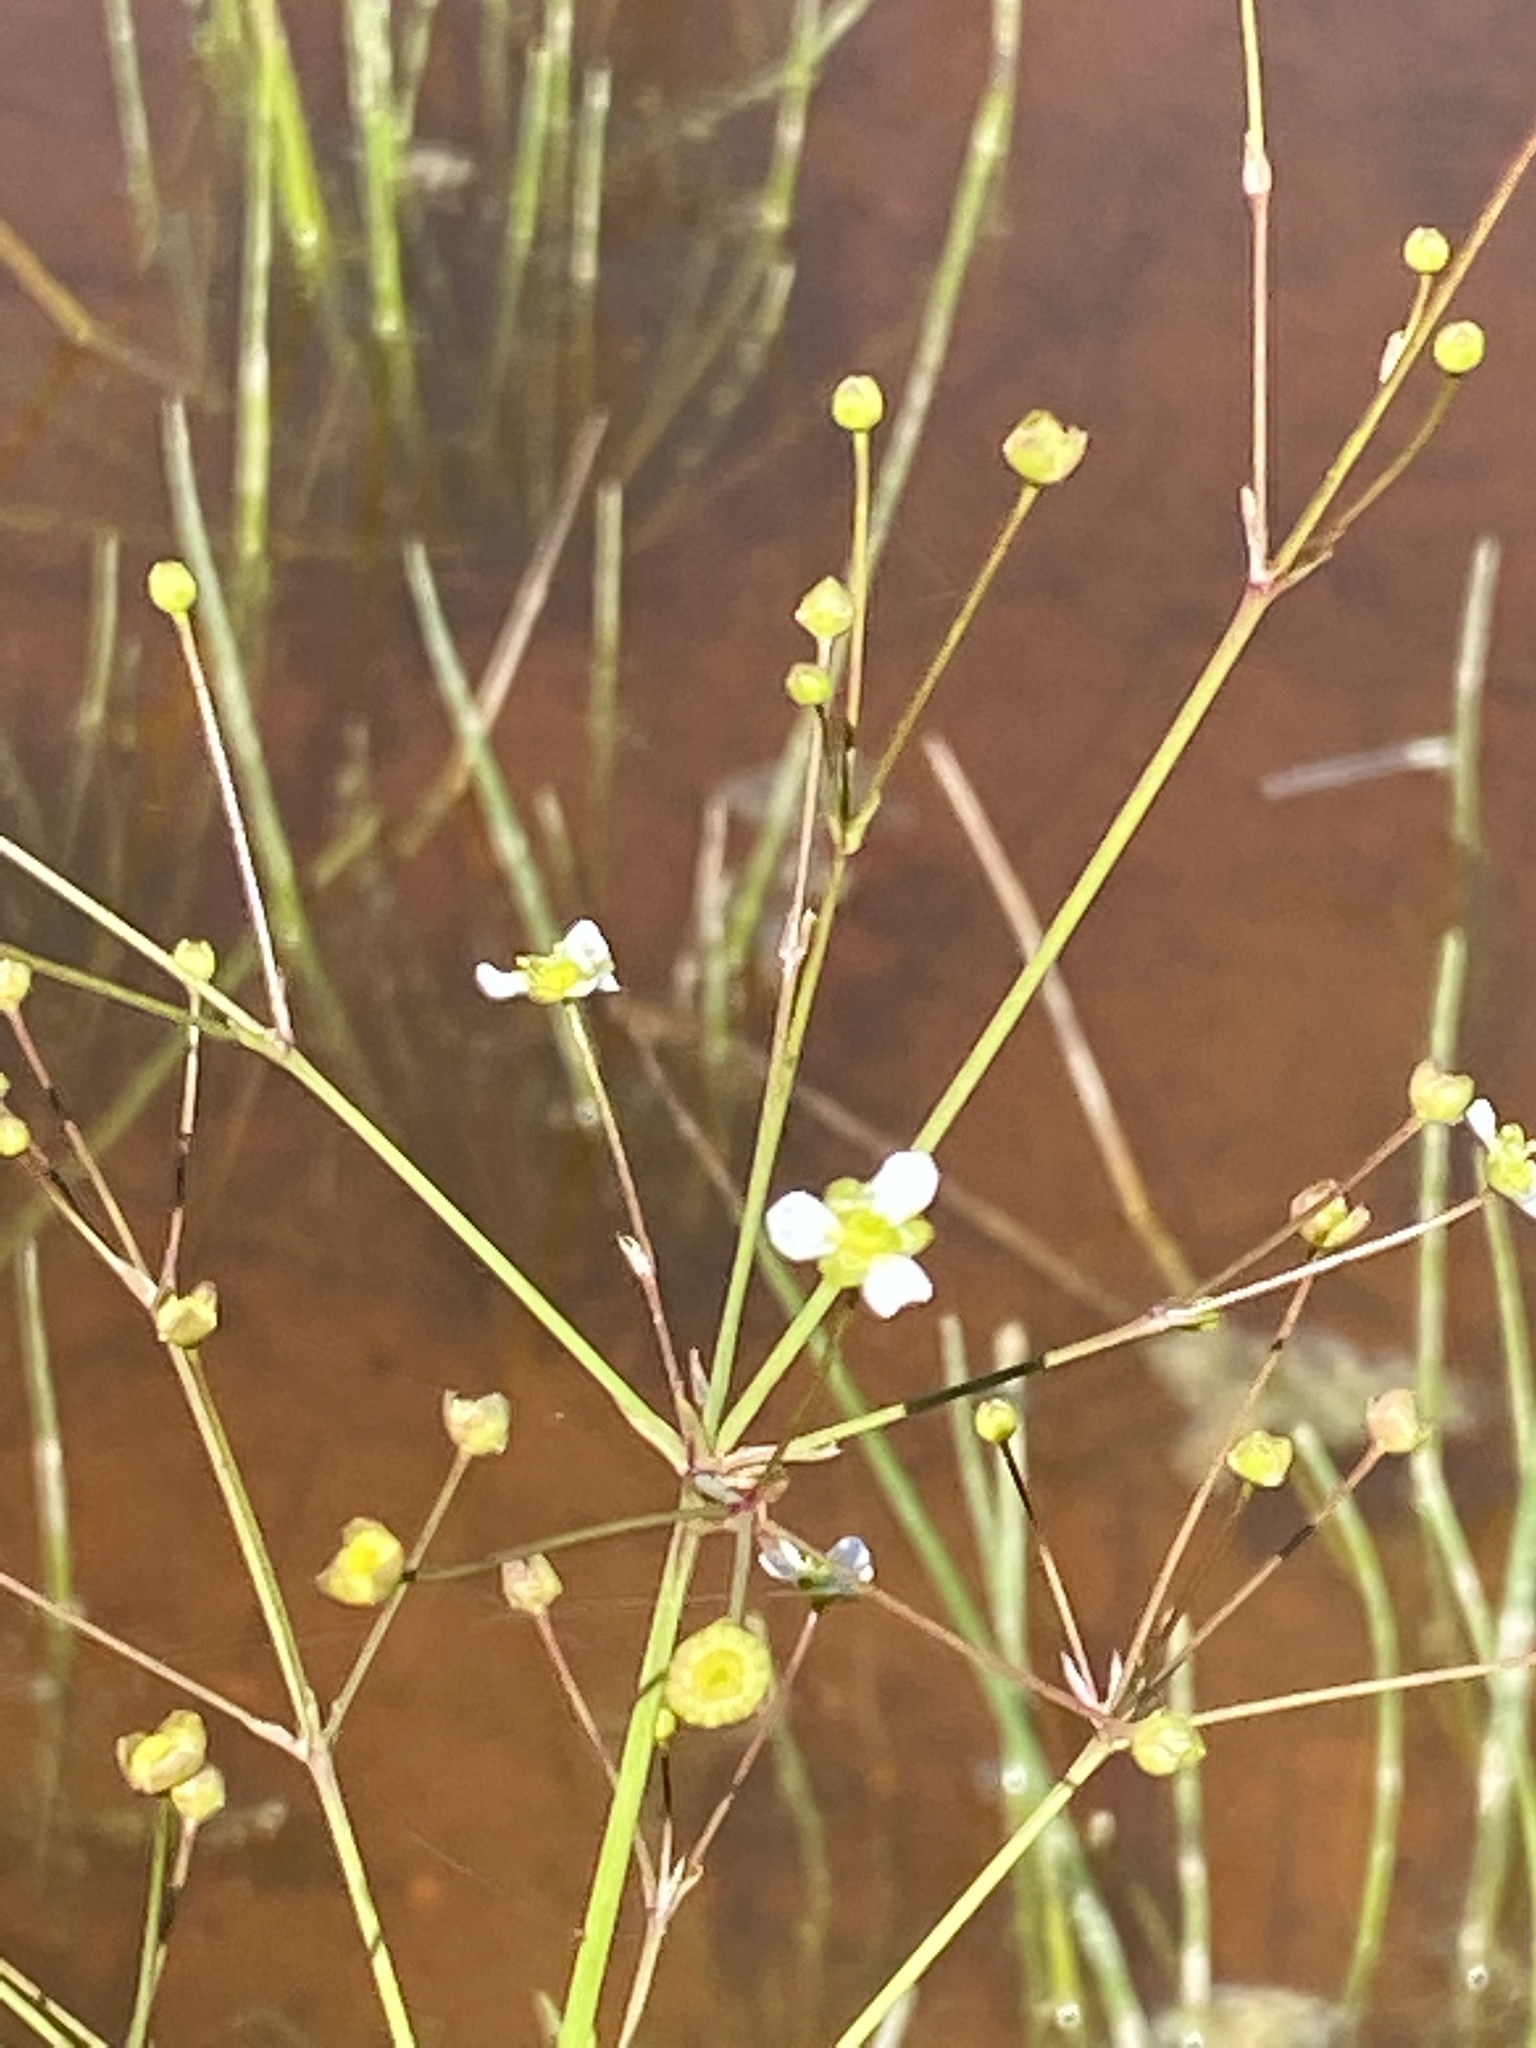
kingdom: Plantae
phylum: Tracheophyta
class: Liliopsida
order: Alismatales
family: Alismataceae
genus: Alisma
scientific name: Alisma subcordatum
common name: Southern water-plantain
